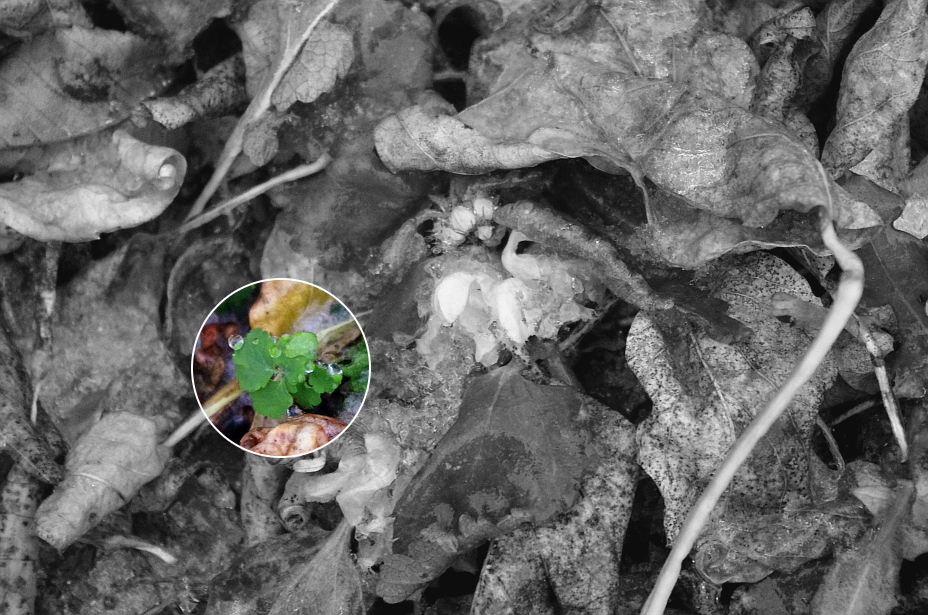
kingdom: Plantae
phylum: Tracheophyta
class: Magnoliopsida
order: Ranunculales
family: Papaveraceae
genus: Chelidonium
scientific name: Chelidonium majus
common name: Greater celandine
